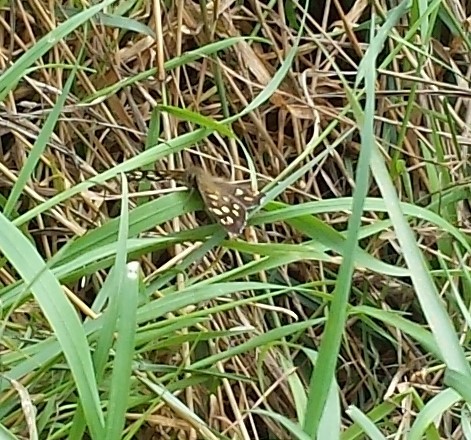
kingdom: Animalia
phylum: Arthropoda
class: Insecta
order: Lepidoptera
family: Nymphalidae
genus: Pararge
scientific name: Pararge aegeria
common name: Speckled wood
